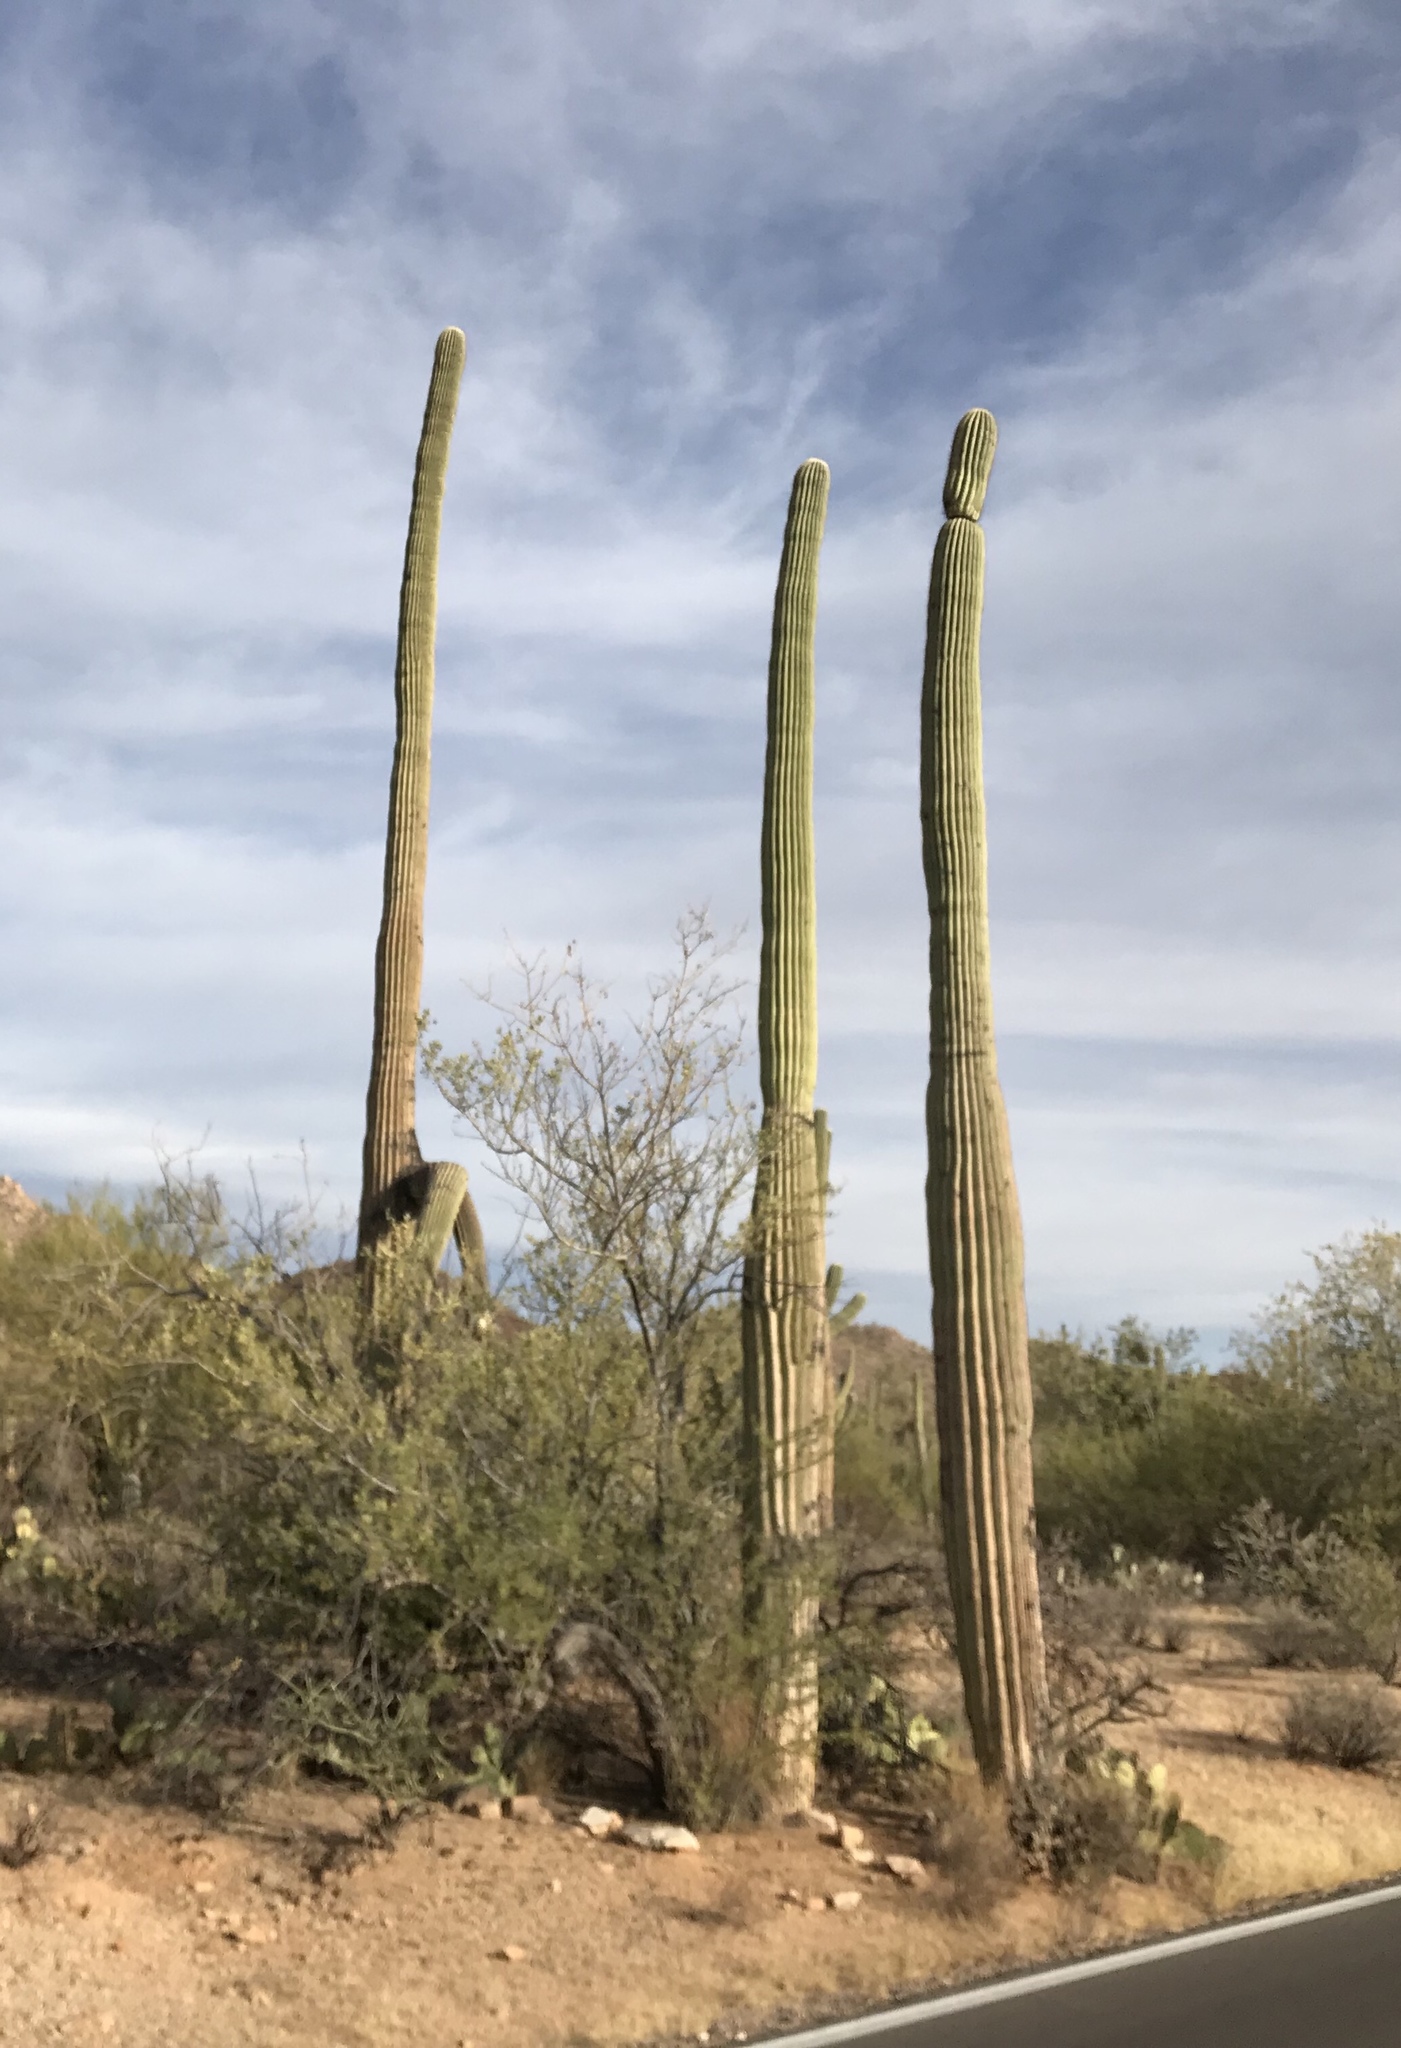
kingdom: Plantae
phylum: Tracheophyta
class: Magnoliopsida
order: Caryophyllales
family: Cactaceae
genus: Carnegiea
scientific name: Carnegiea gigantea
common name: Saguaro
